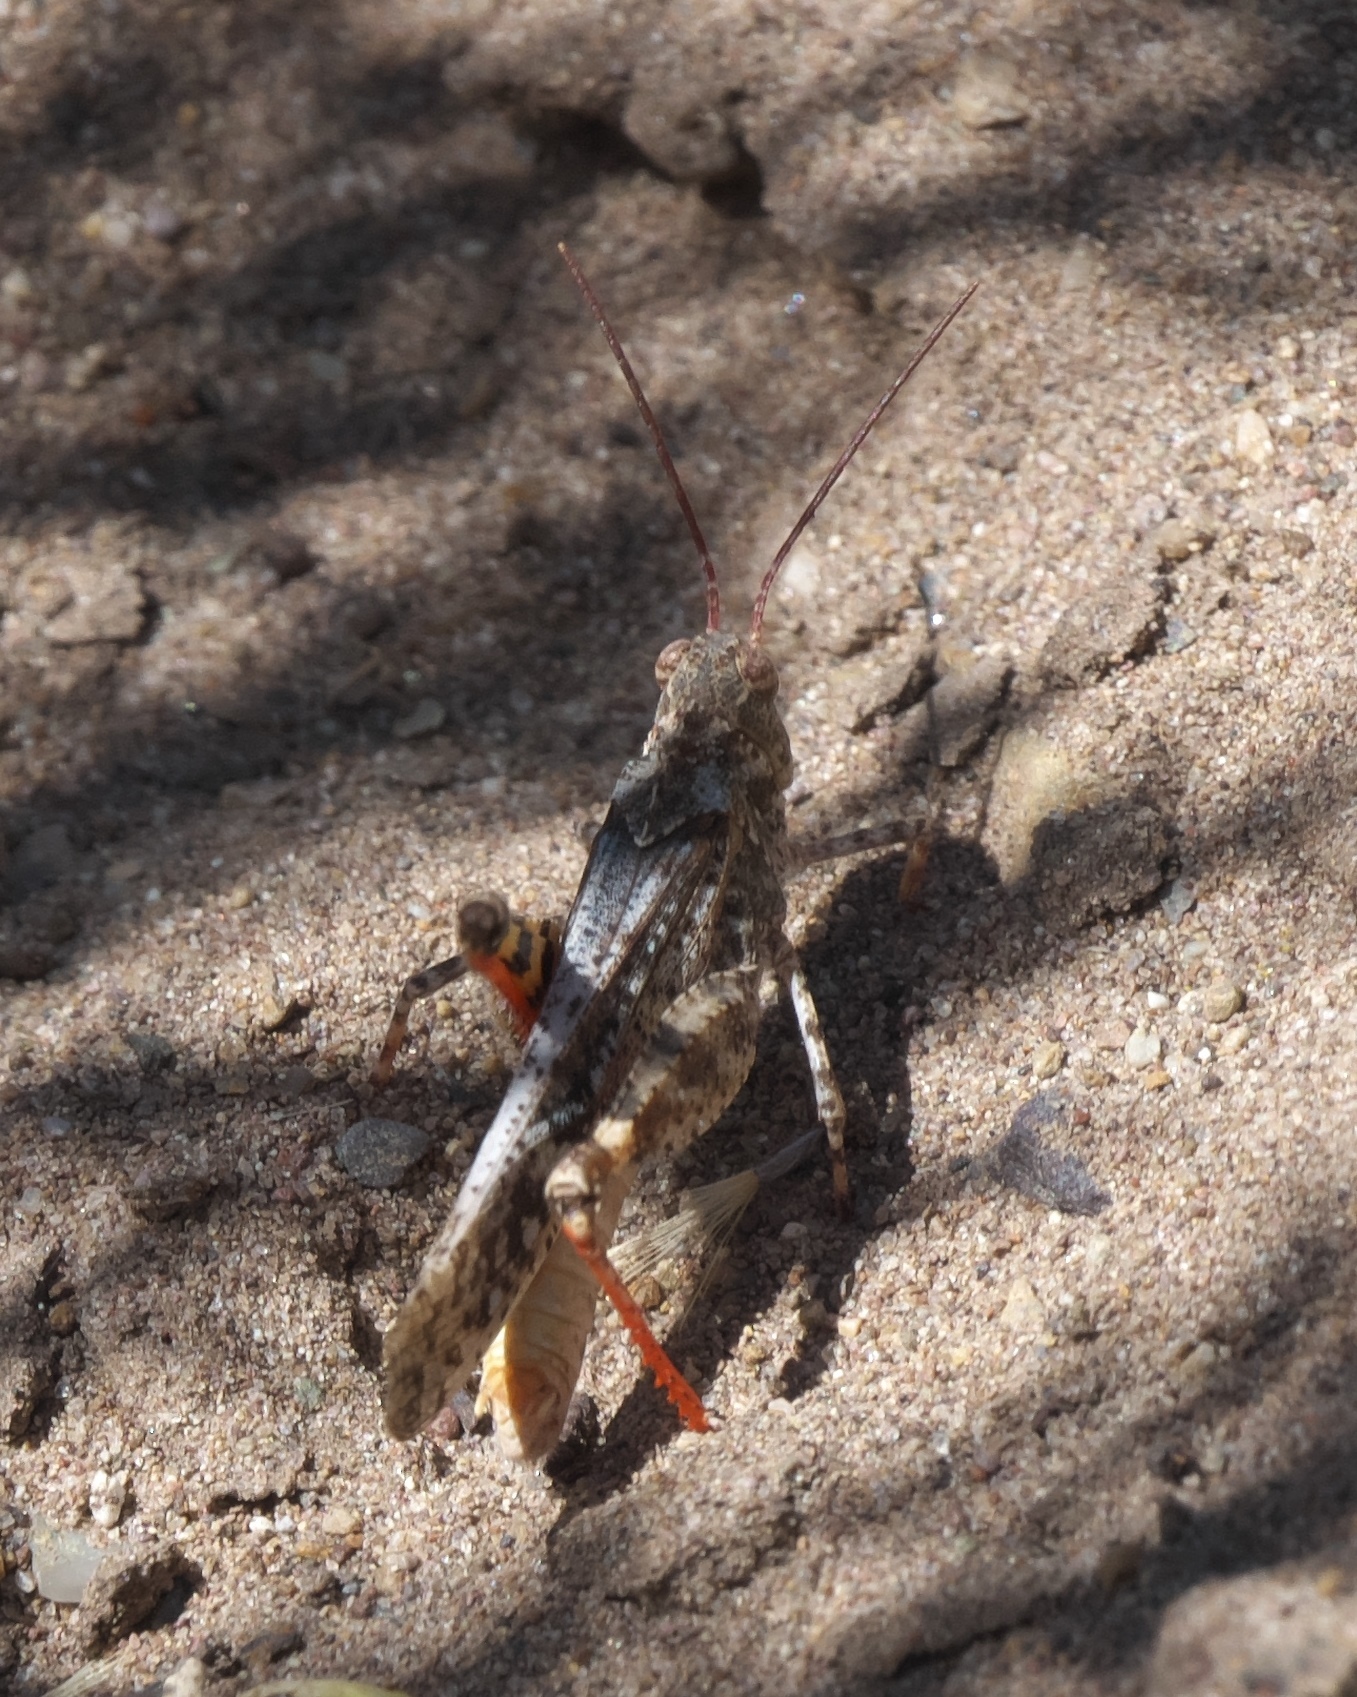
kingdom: Animalia
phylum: Arthropoda
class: Insecta
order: Orthoptera
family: Acrididae
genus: Spharagemon
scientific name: Spharagemon collare
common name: Mottled sand grasshopper
